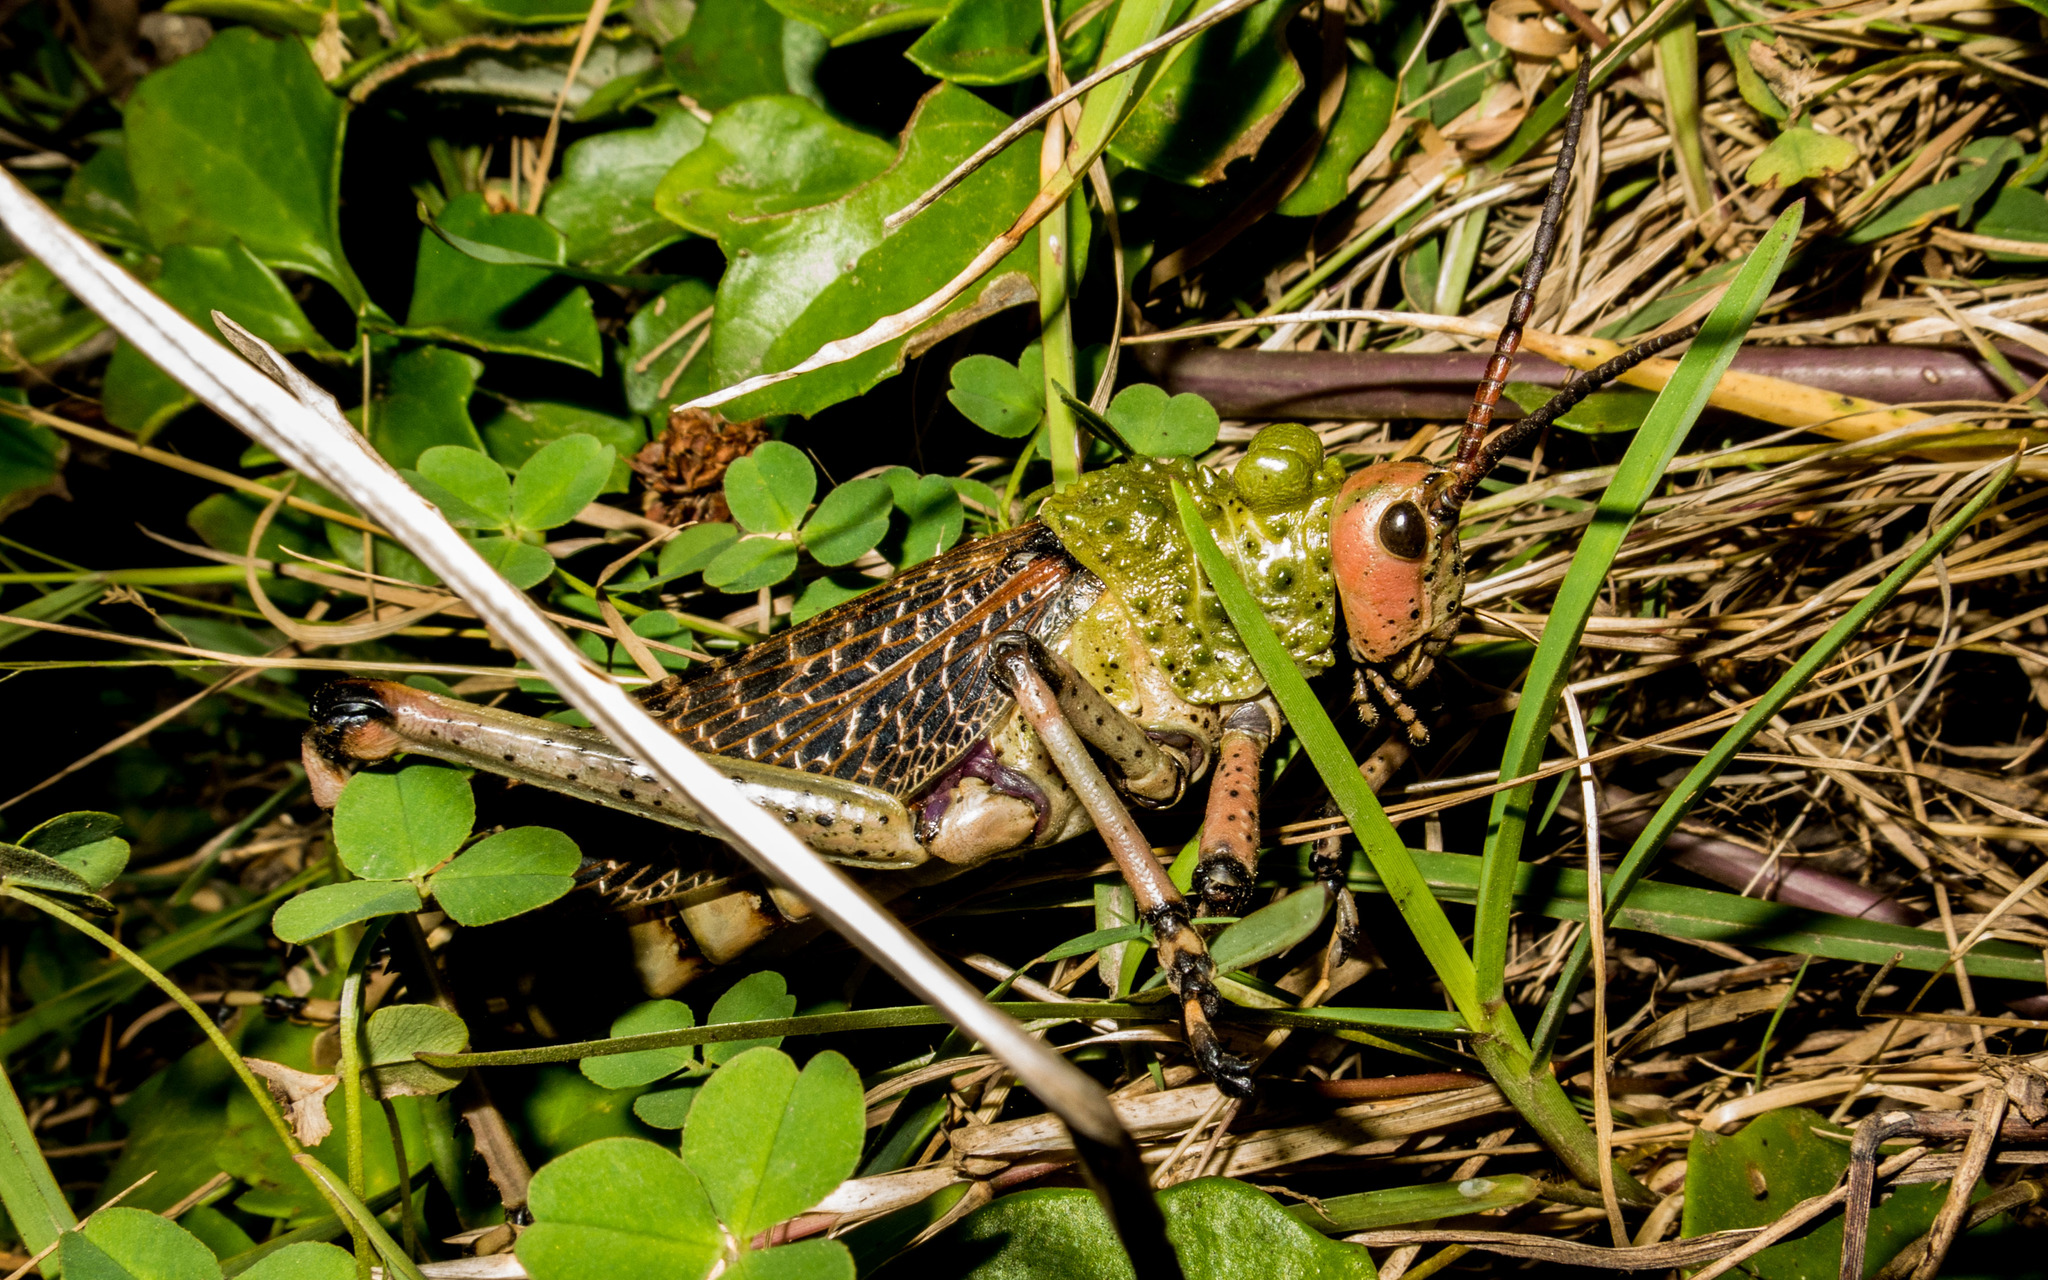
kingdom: Animalia
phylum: Arthropoda
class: Insecta
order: Orthoptera
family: Pyrgomorphidae
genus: Phymateus
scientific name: Phymateus leprosus
